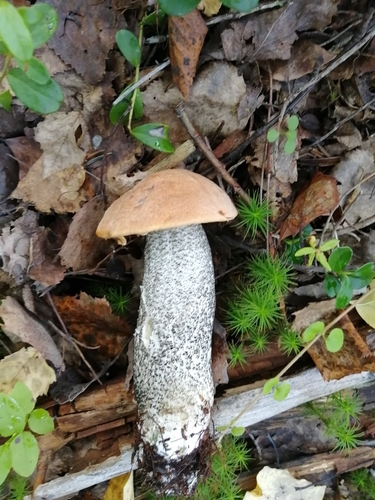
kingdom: Fungi
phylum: Basidiomycota
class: Agaricomycetes
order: Boletales
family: Boletaceae
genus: Leccinum
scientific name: Leccinum versipelle
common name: Orange birch bolete
